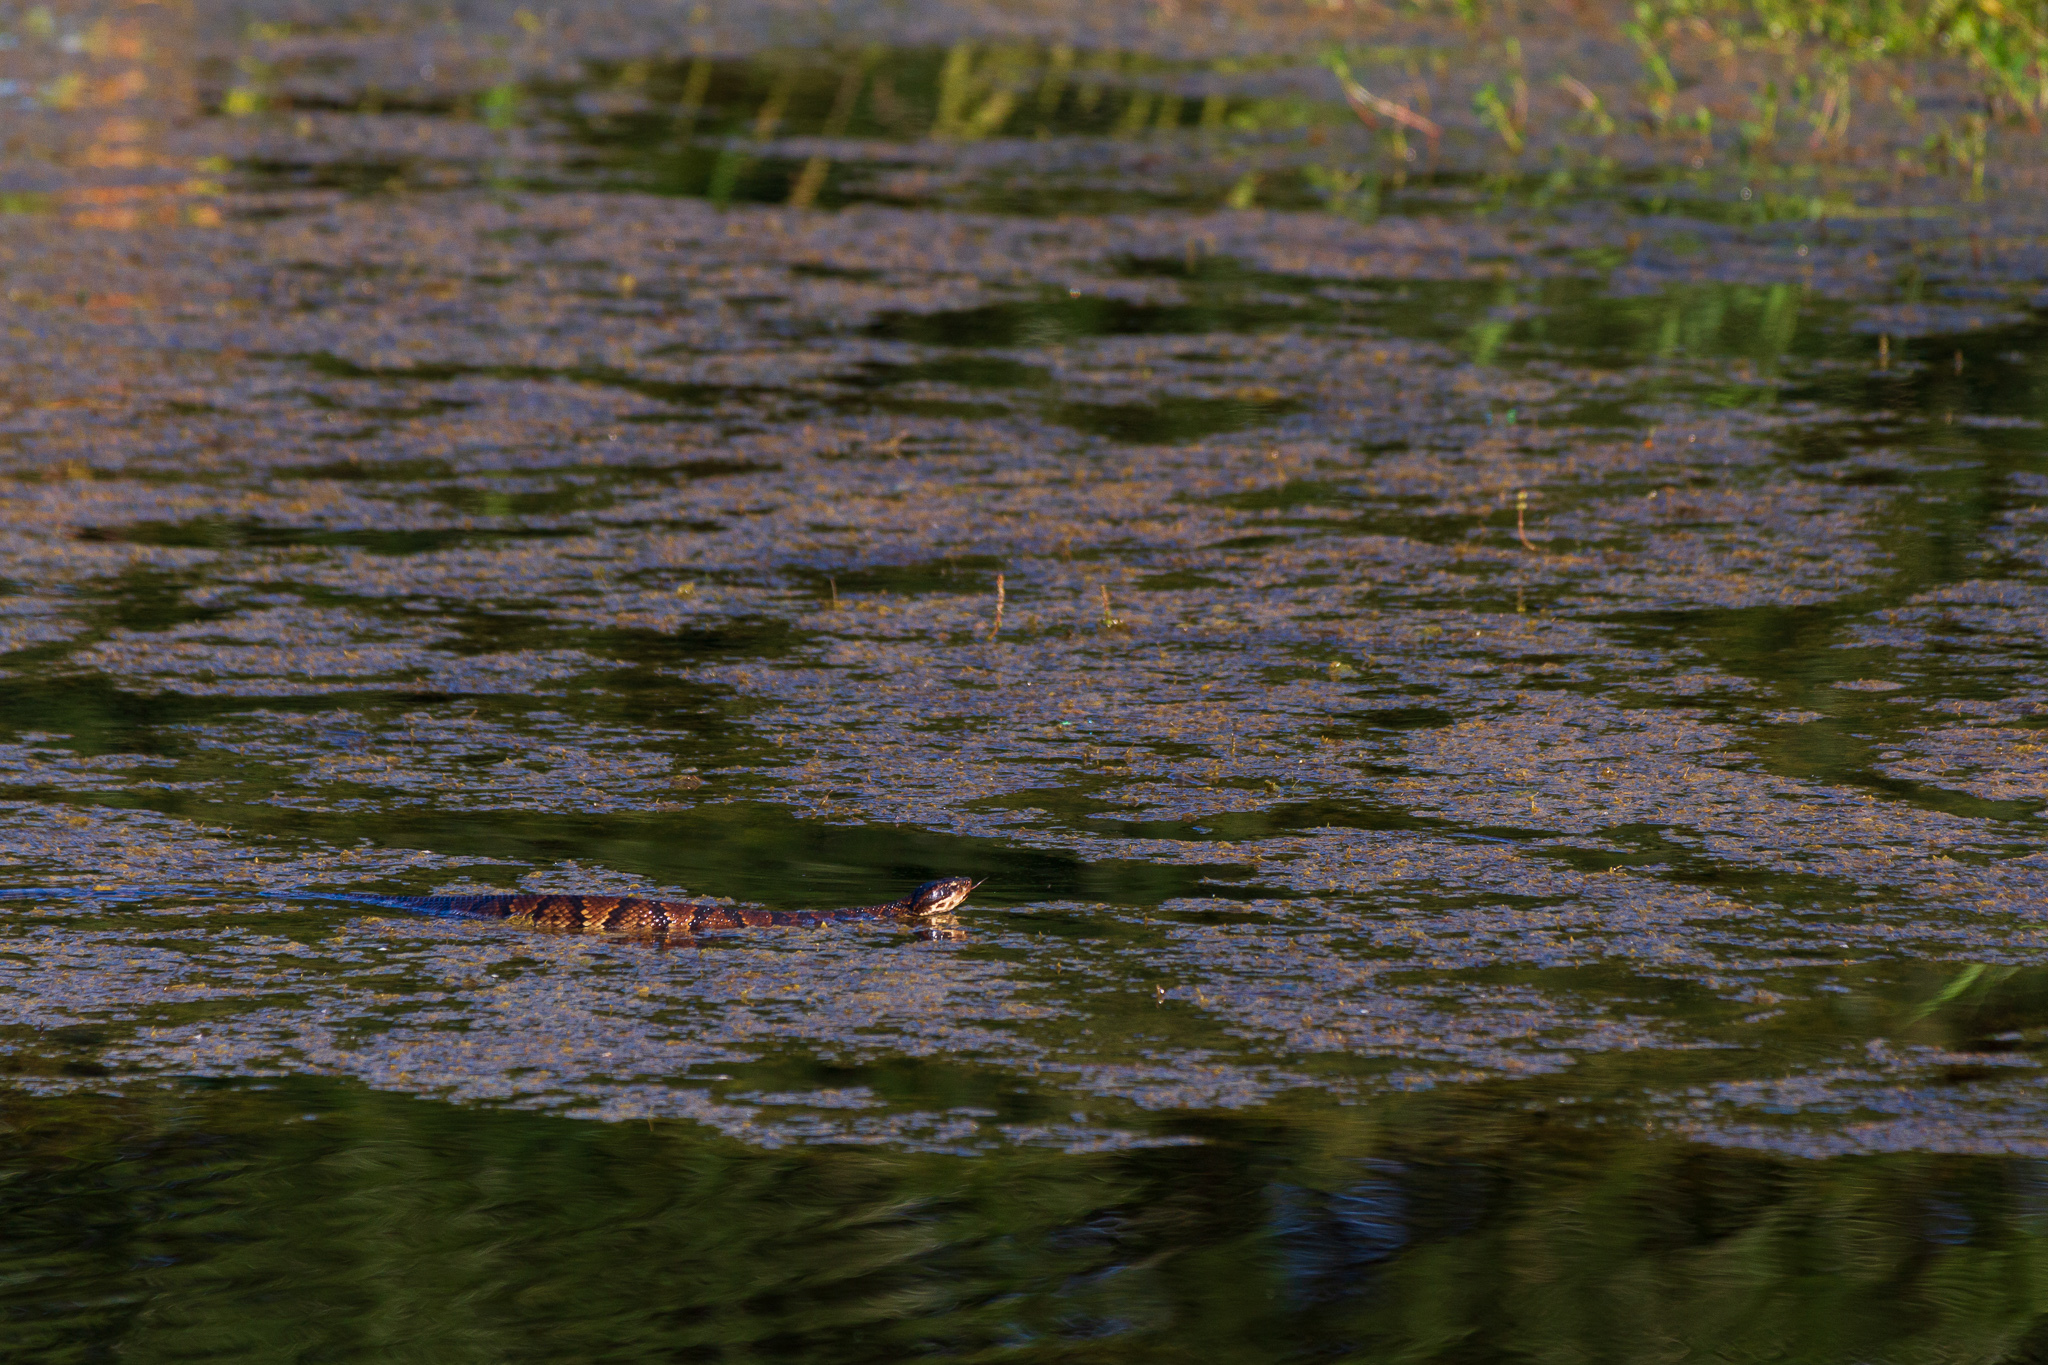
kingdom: Animalia
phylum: Chordata
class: Squamata
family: Viperidae
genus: Agkistrodon
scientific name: Agkistrodon piscivorus
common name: Cottonmouth
